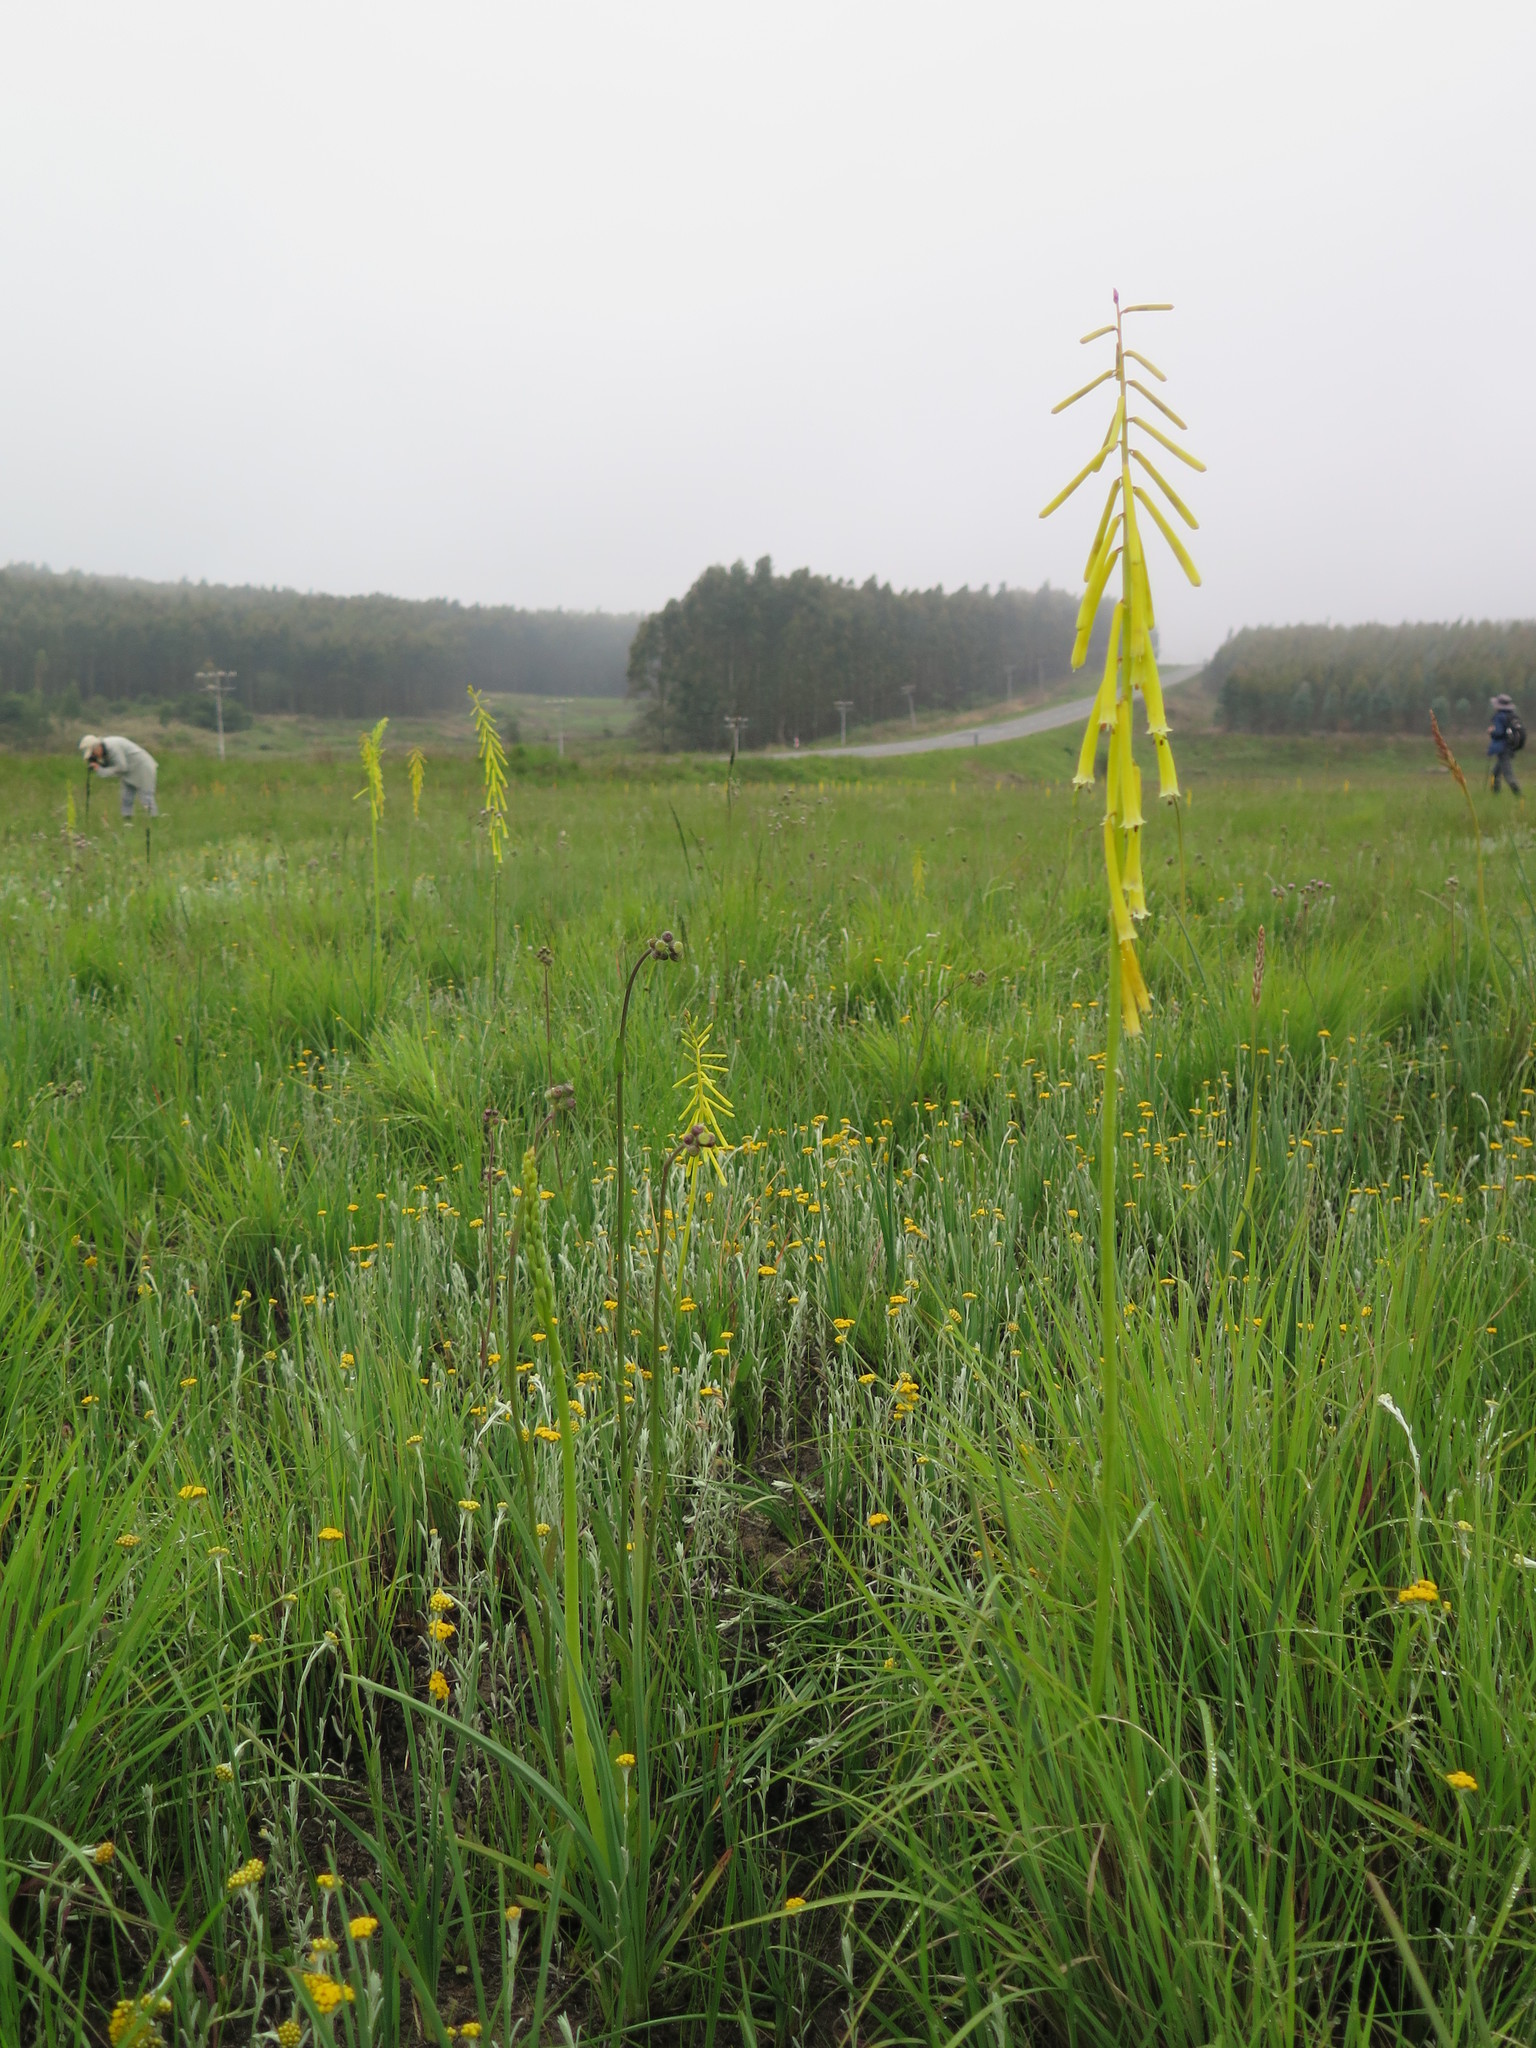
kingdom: Plantae
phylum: Tracheophyta
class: Liliopsida
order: Asparagales
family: Asphodelaceae
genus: Kniphofia
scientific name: Kniphofia ichopensis
